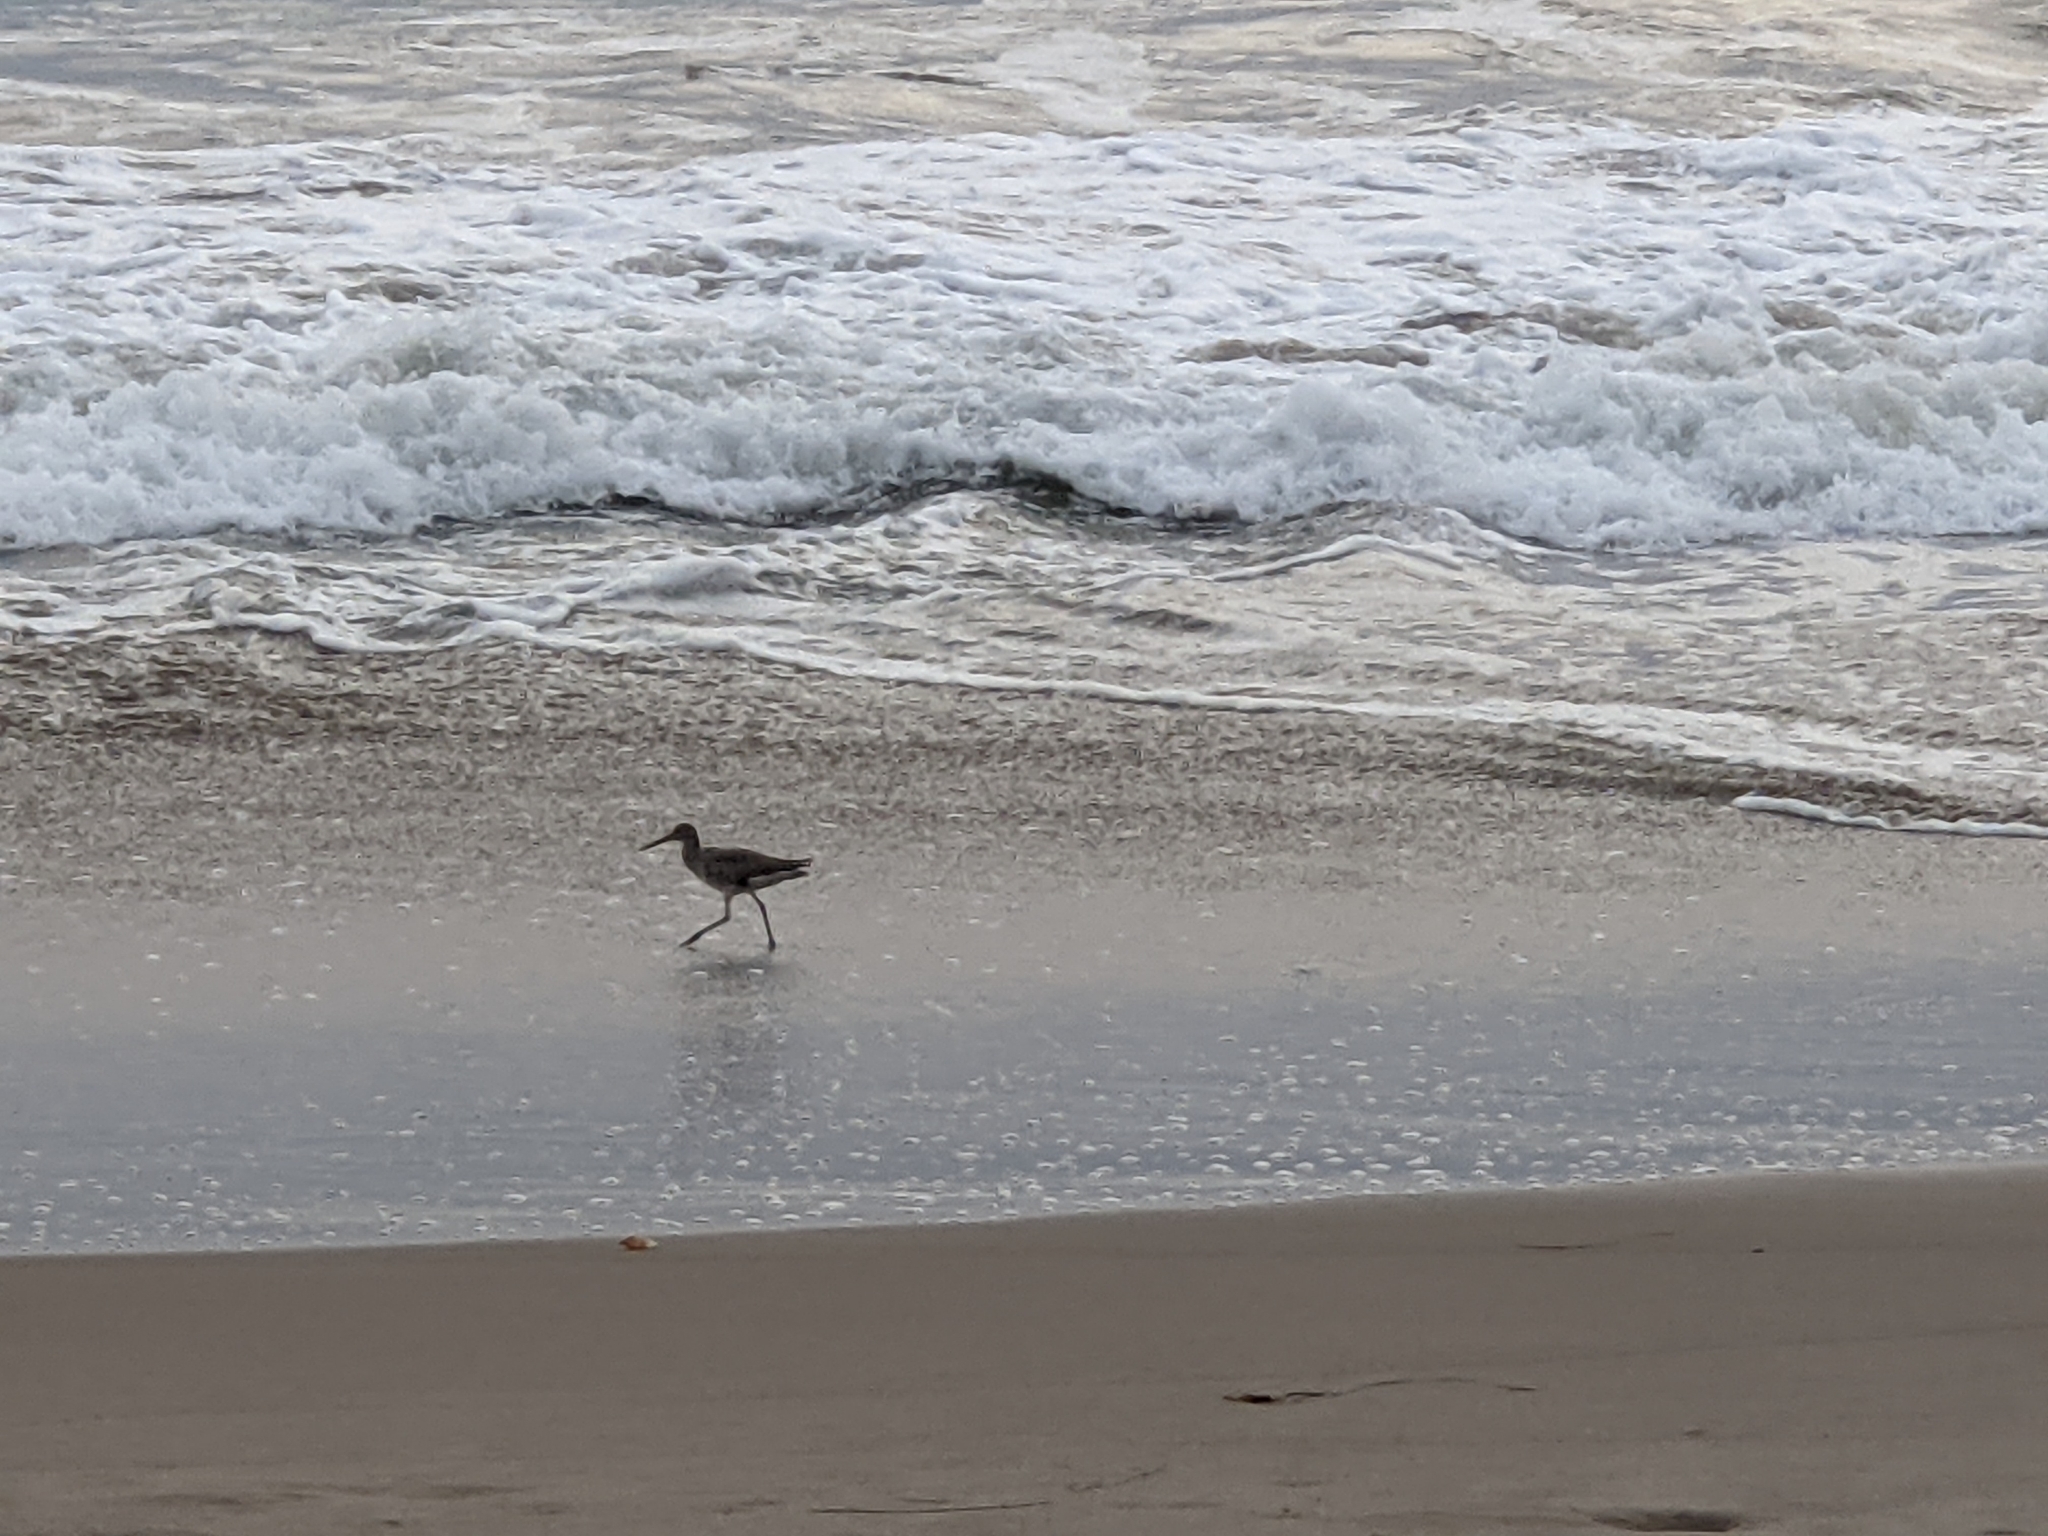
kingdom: Animalia
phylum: Chordata
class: Aves
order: Charadriiformes
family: Scolopacidae
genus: Tringa
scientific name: Tringa semipalmata
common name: Willet
